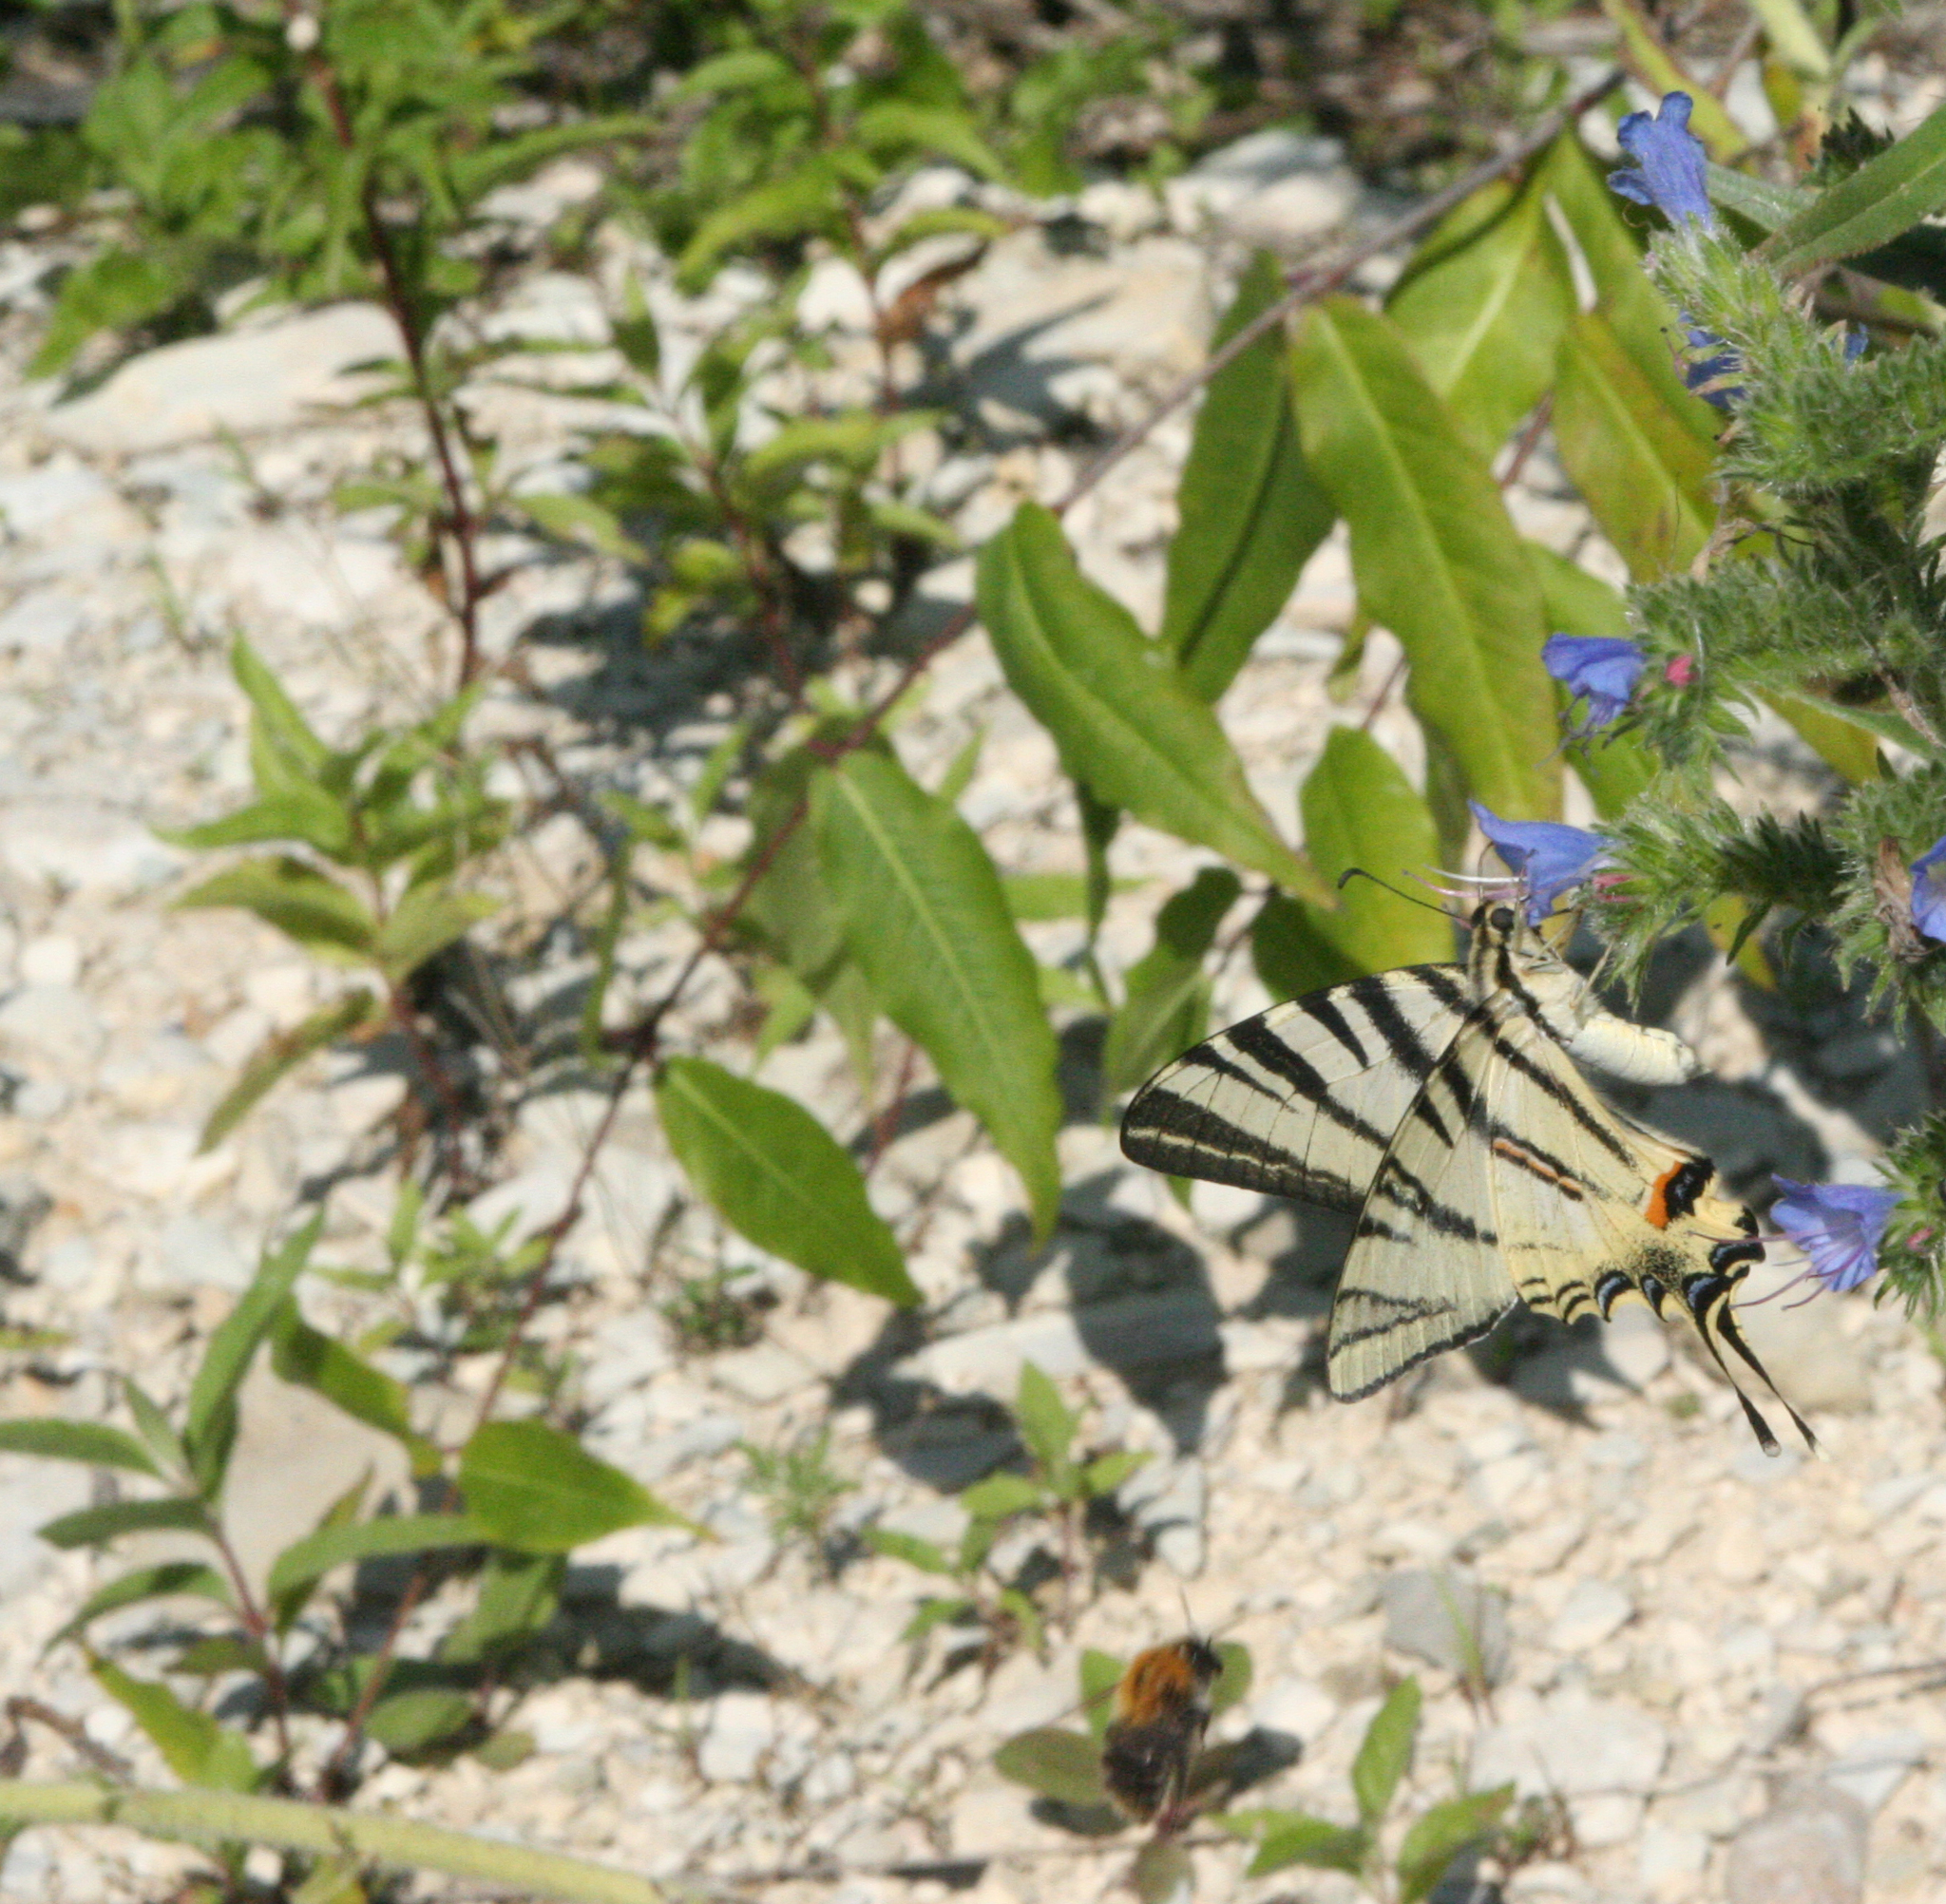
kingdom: Plantae
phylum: Tracheophyta
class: Magnoliopsida
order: Boraginales
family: Boraginaceae
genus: Echium
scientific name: Echium vulgare
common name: Common viper's bugloss
